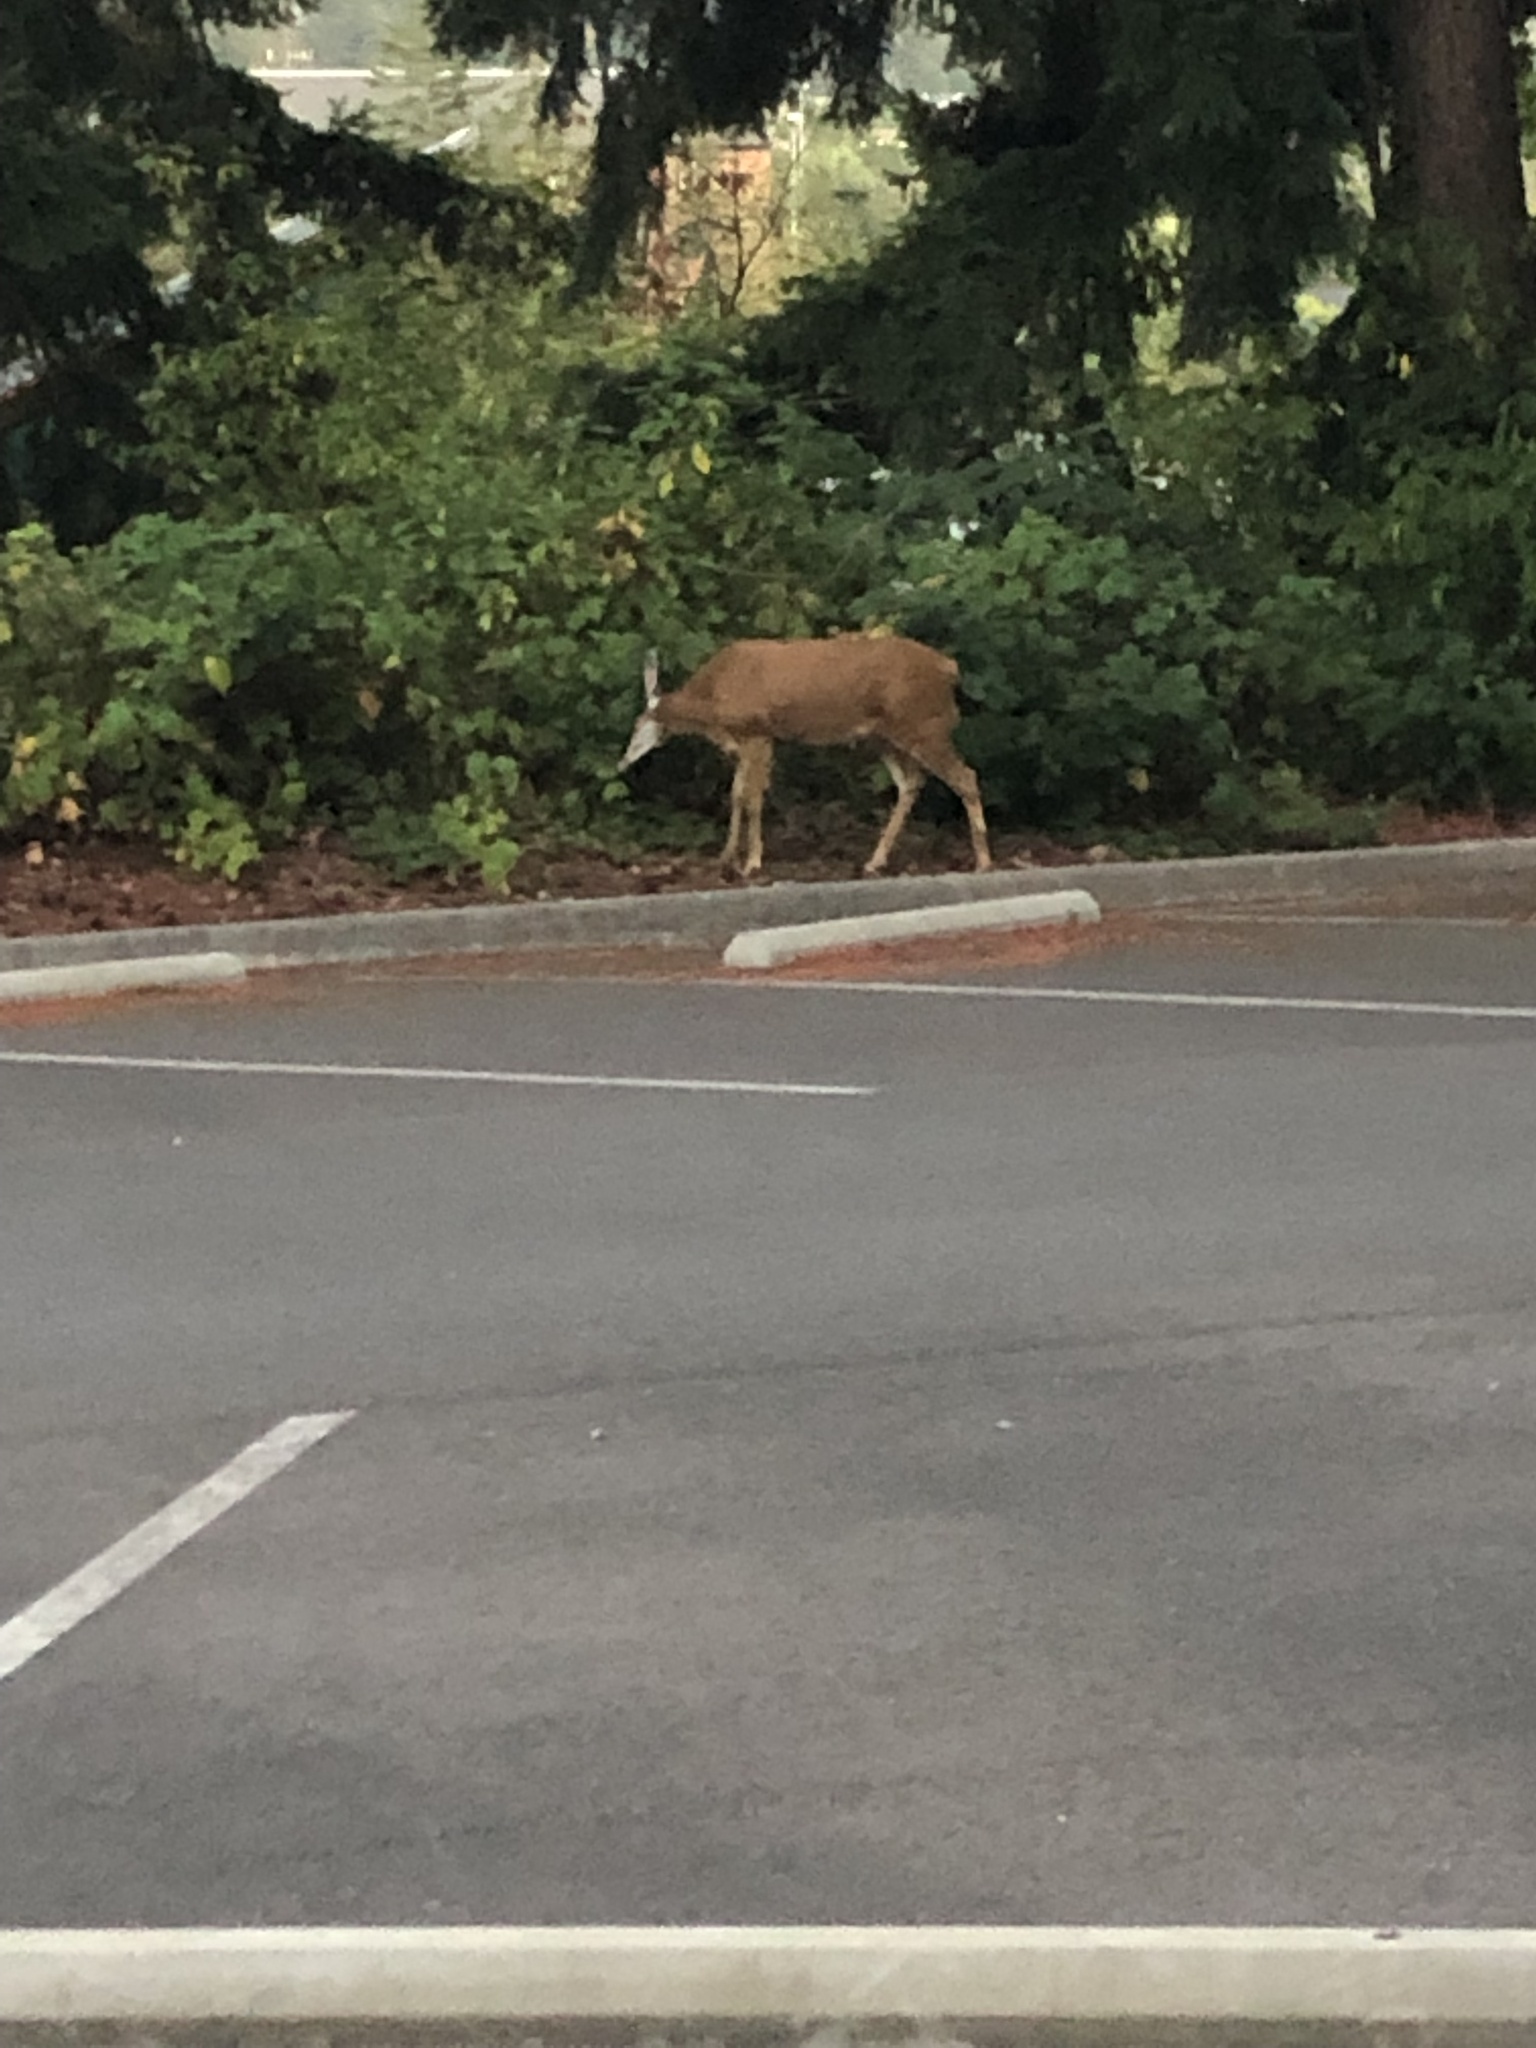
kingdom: Animalia
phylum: Chordata
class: Mammalia
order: Artiodactyla
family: Cervidae
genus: Odocoileus
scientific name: Odocoileus hemionus
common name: Mule deer
